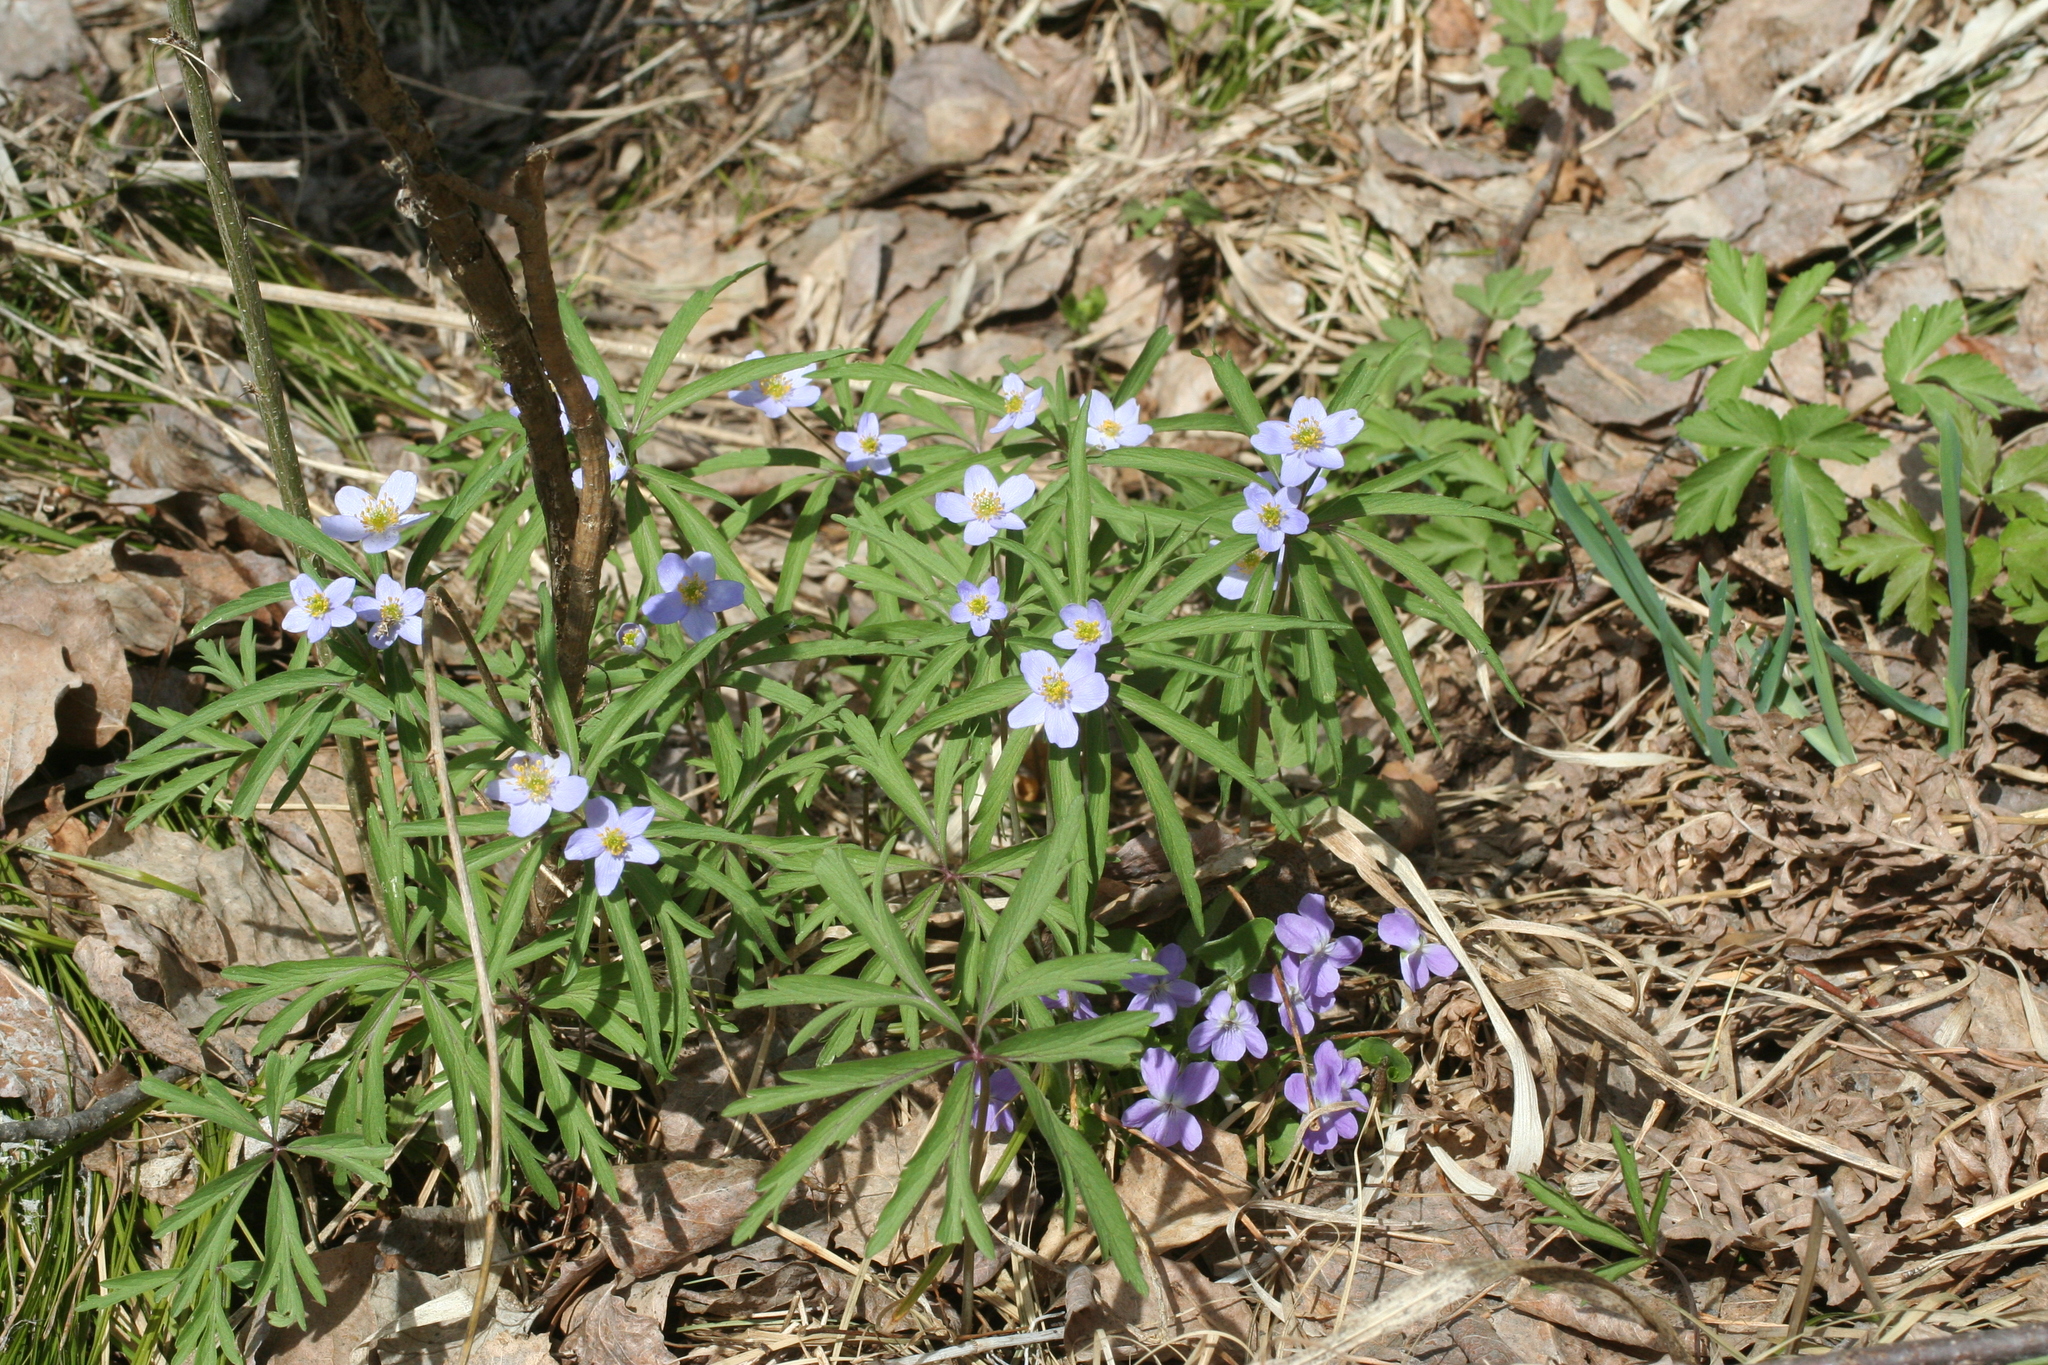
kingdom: Plantae
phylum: Tracheophyta
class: Magnoliopsida
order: Ranunculales
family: Ranunculaceae
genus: Anemone
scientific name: Anemone caerulea
